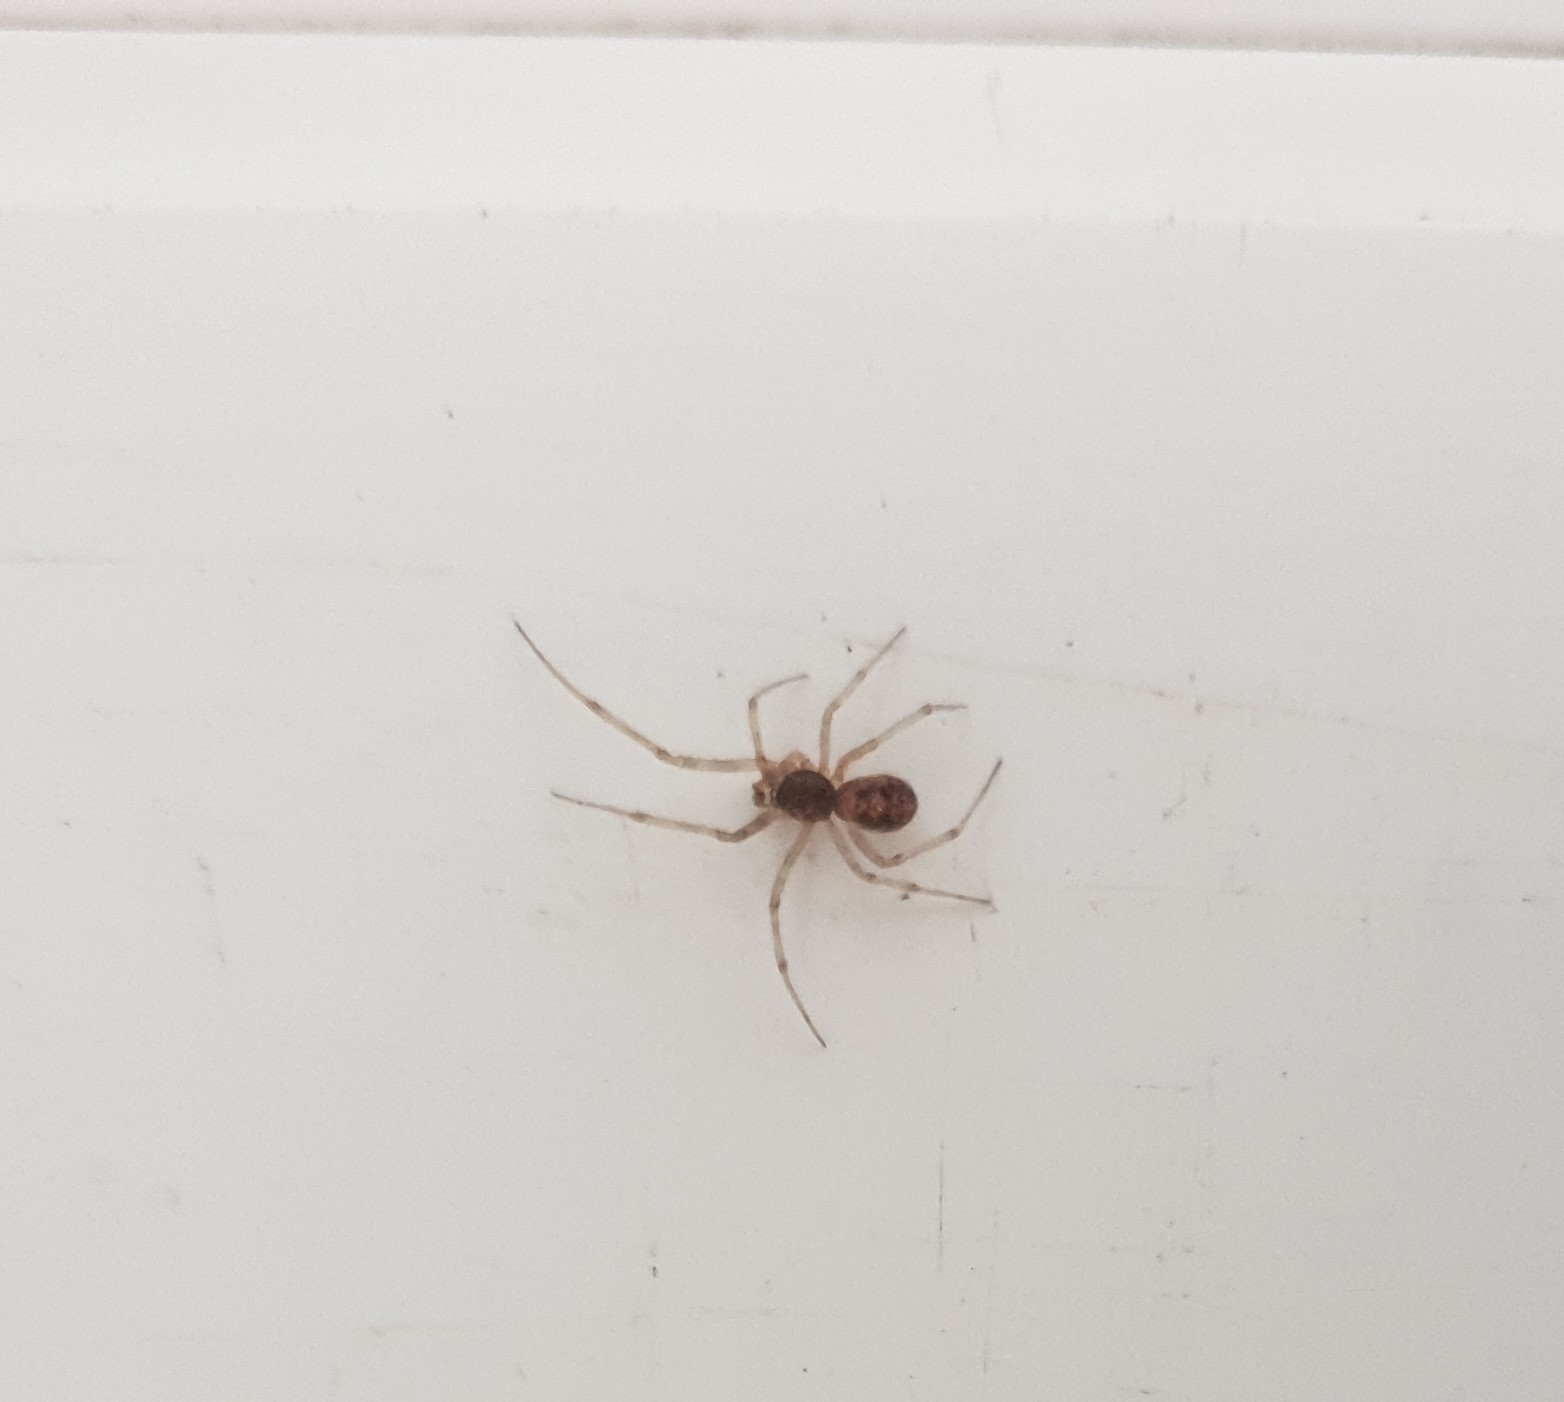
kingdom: Animalia
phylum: Arthropoda
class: Arachnida
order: Araneae
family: Theridiidae
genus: Steatoda
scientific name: Steatoda triangulosa
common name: Triangulate bud spider
